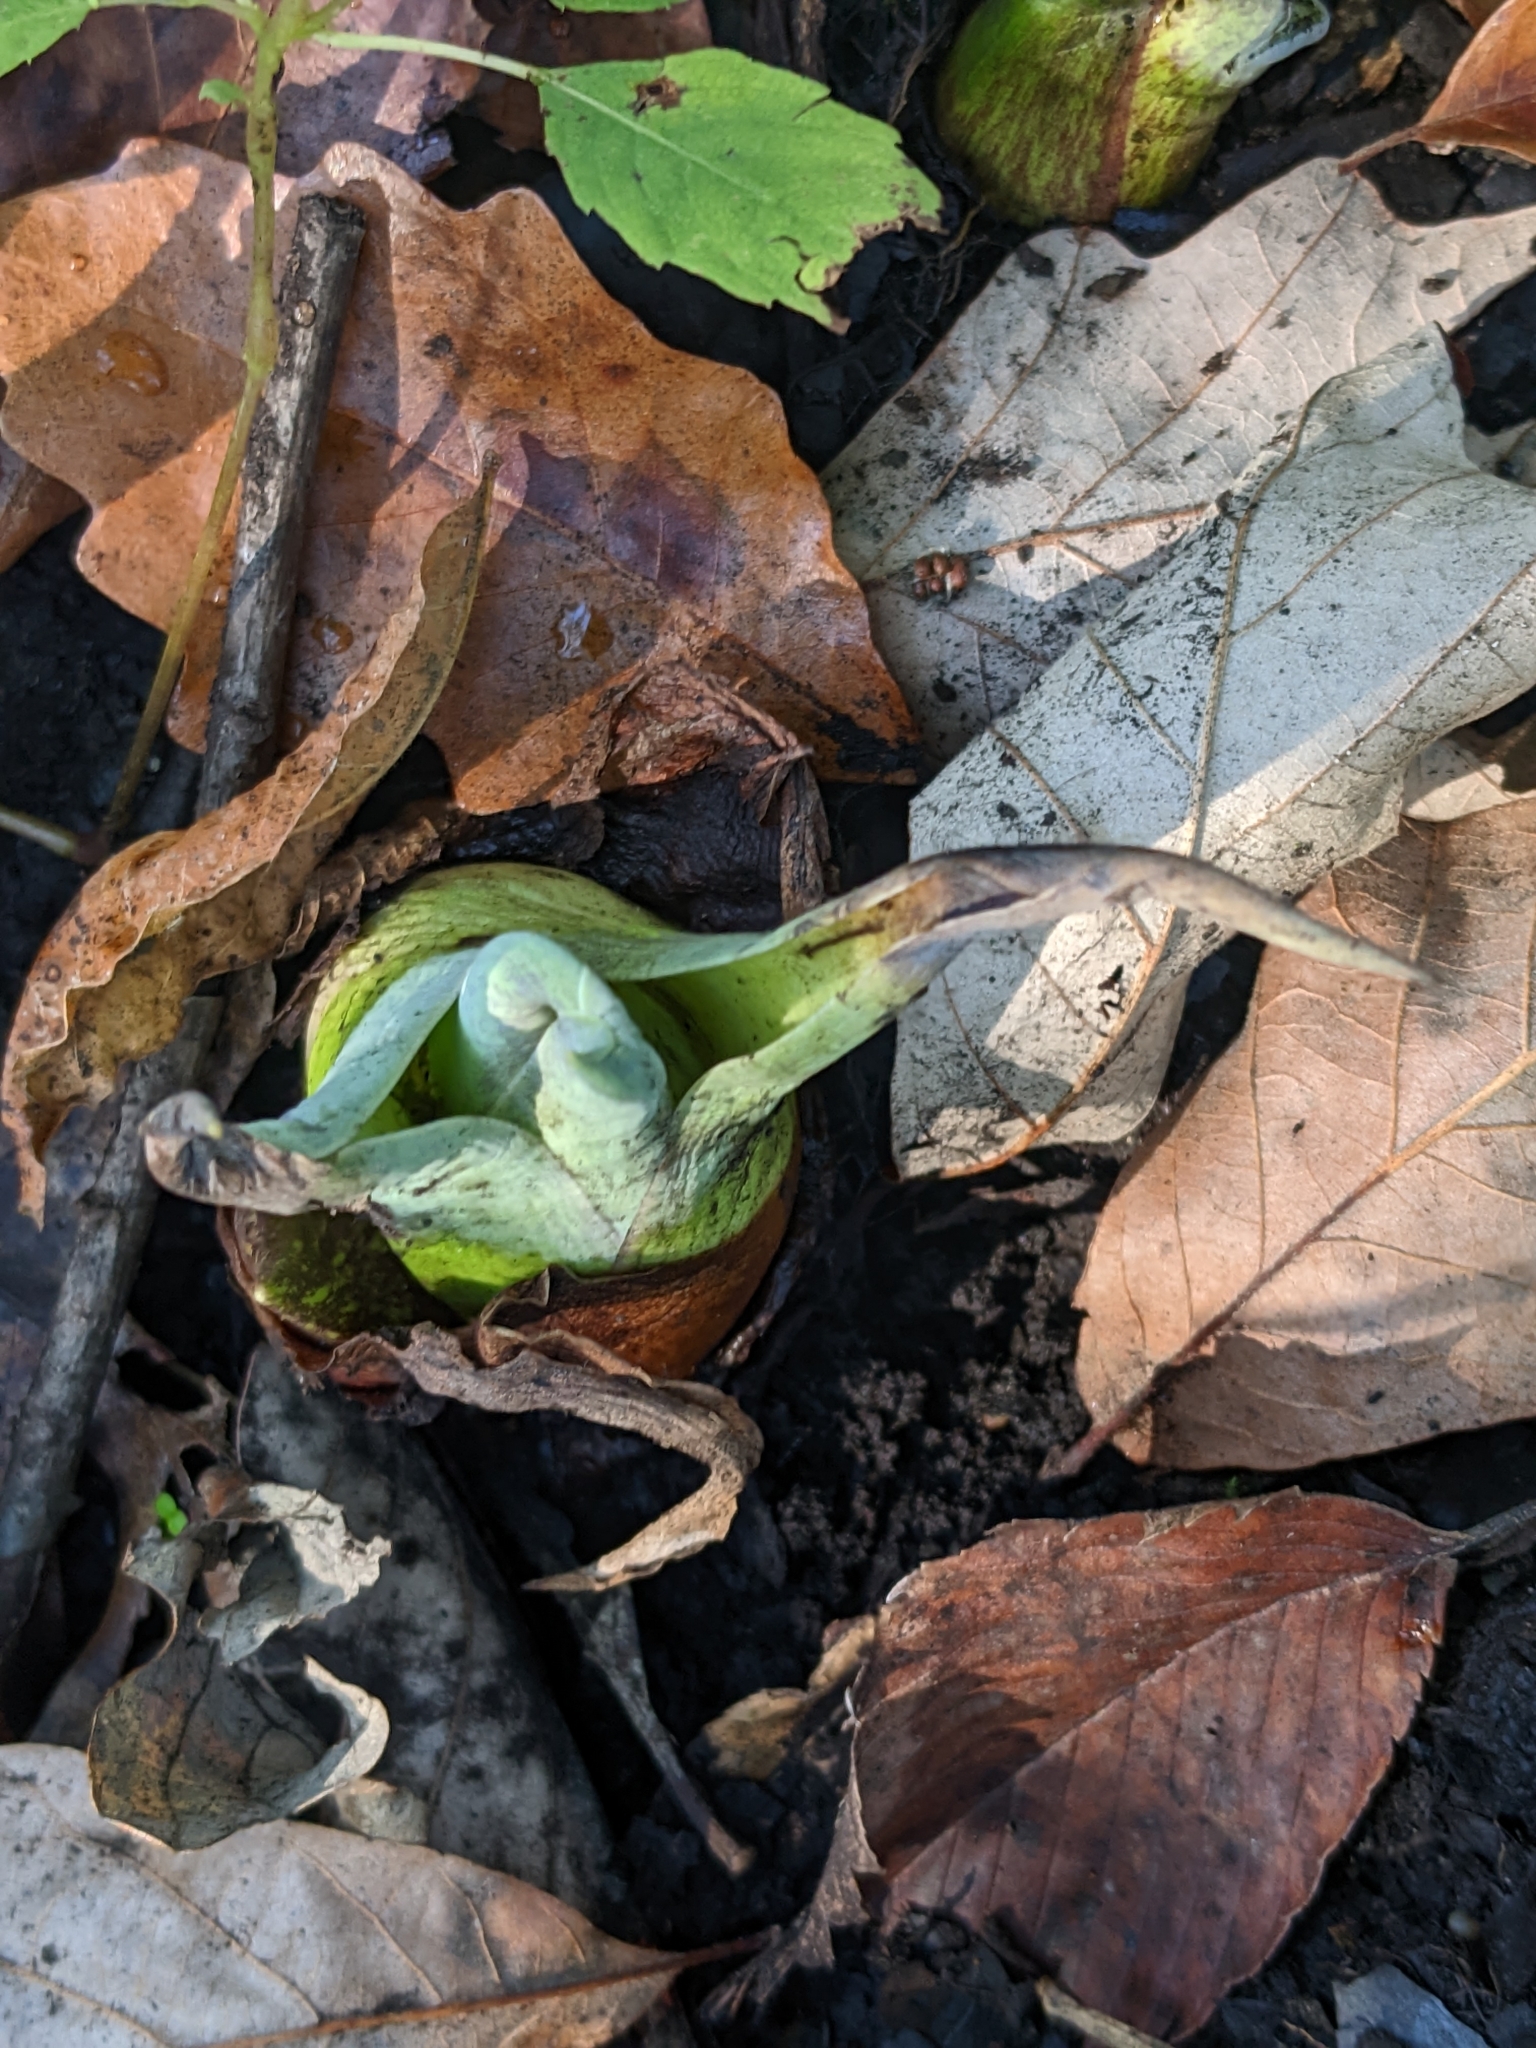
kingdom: Plantae
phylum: Tracheophyta
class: Liliopsida
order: Alismatales
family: Araceae
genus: Symplocarpus
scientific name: Symplocarpus foetidus
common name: Eastern skunk cabbage
